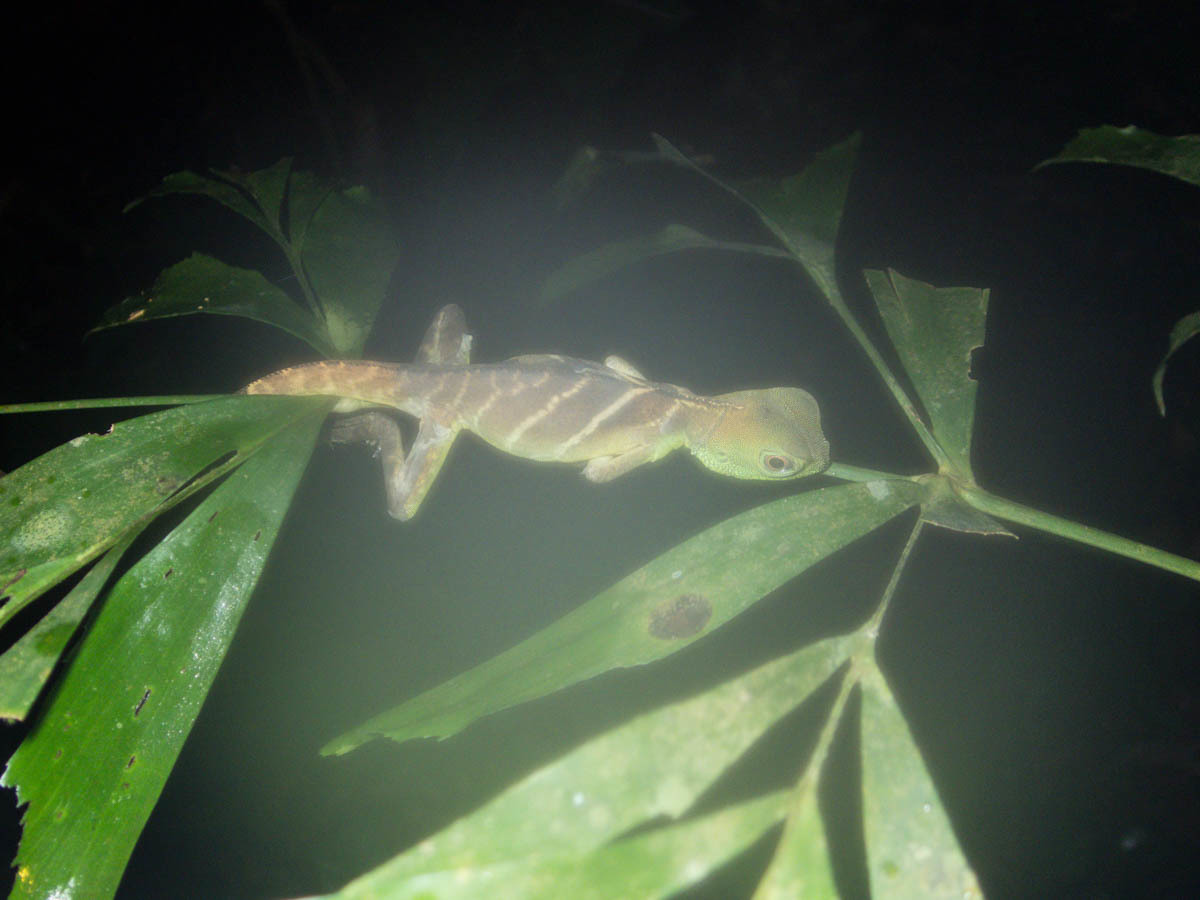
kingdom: Animalia
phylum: Chordata
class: Squamata
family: Agamidae
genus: Physignathus
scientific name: Physignathus cocincinus
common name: Asian water dragon
